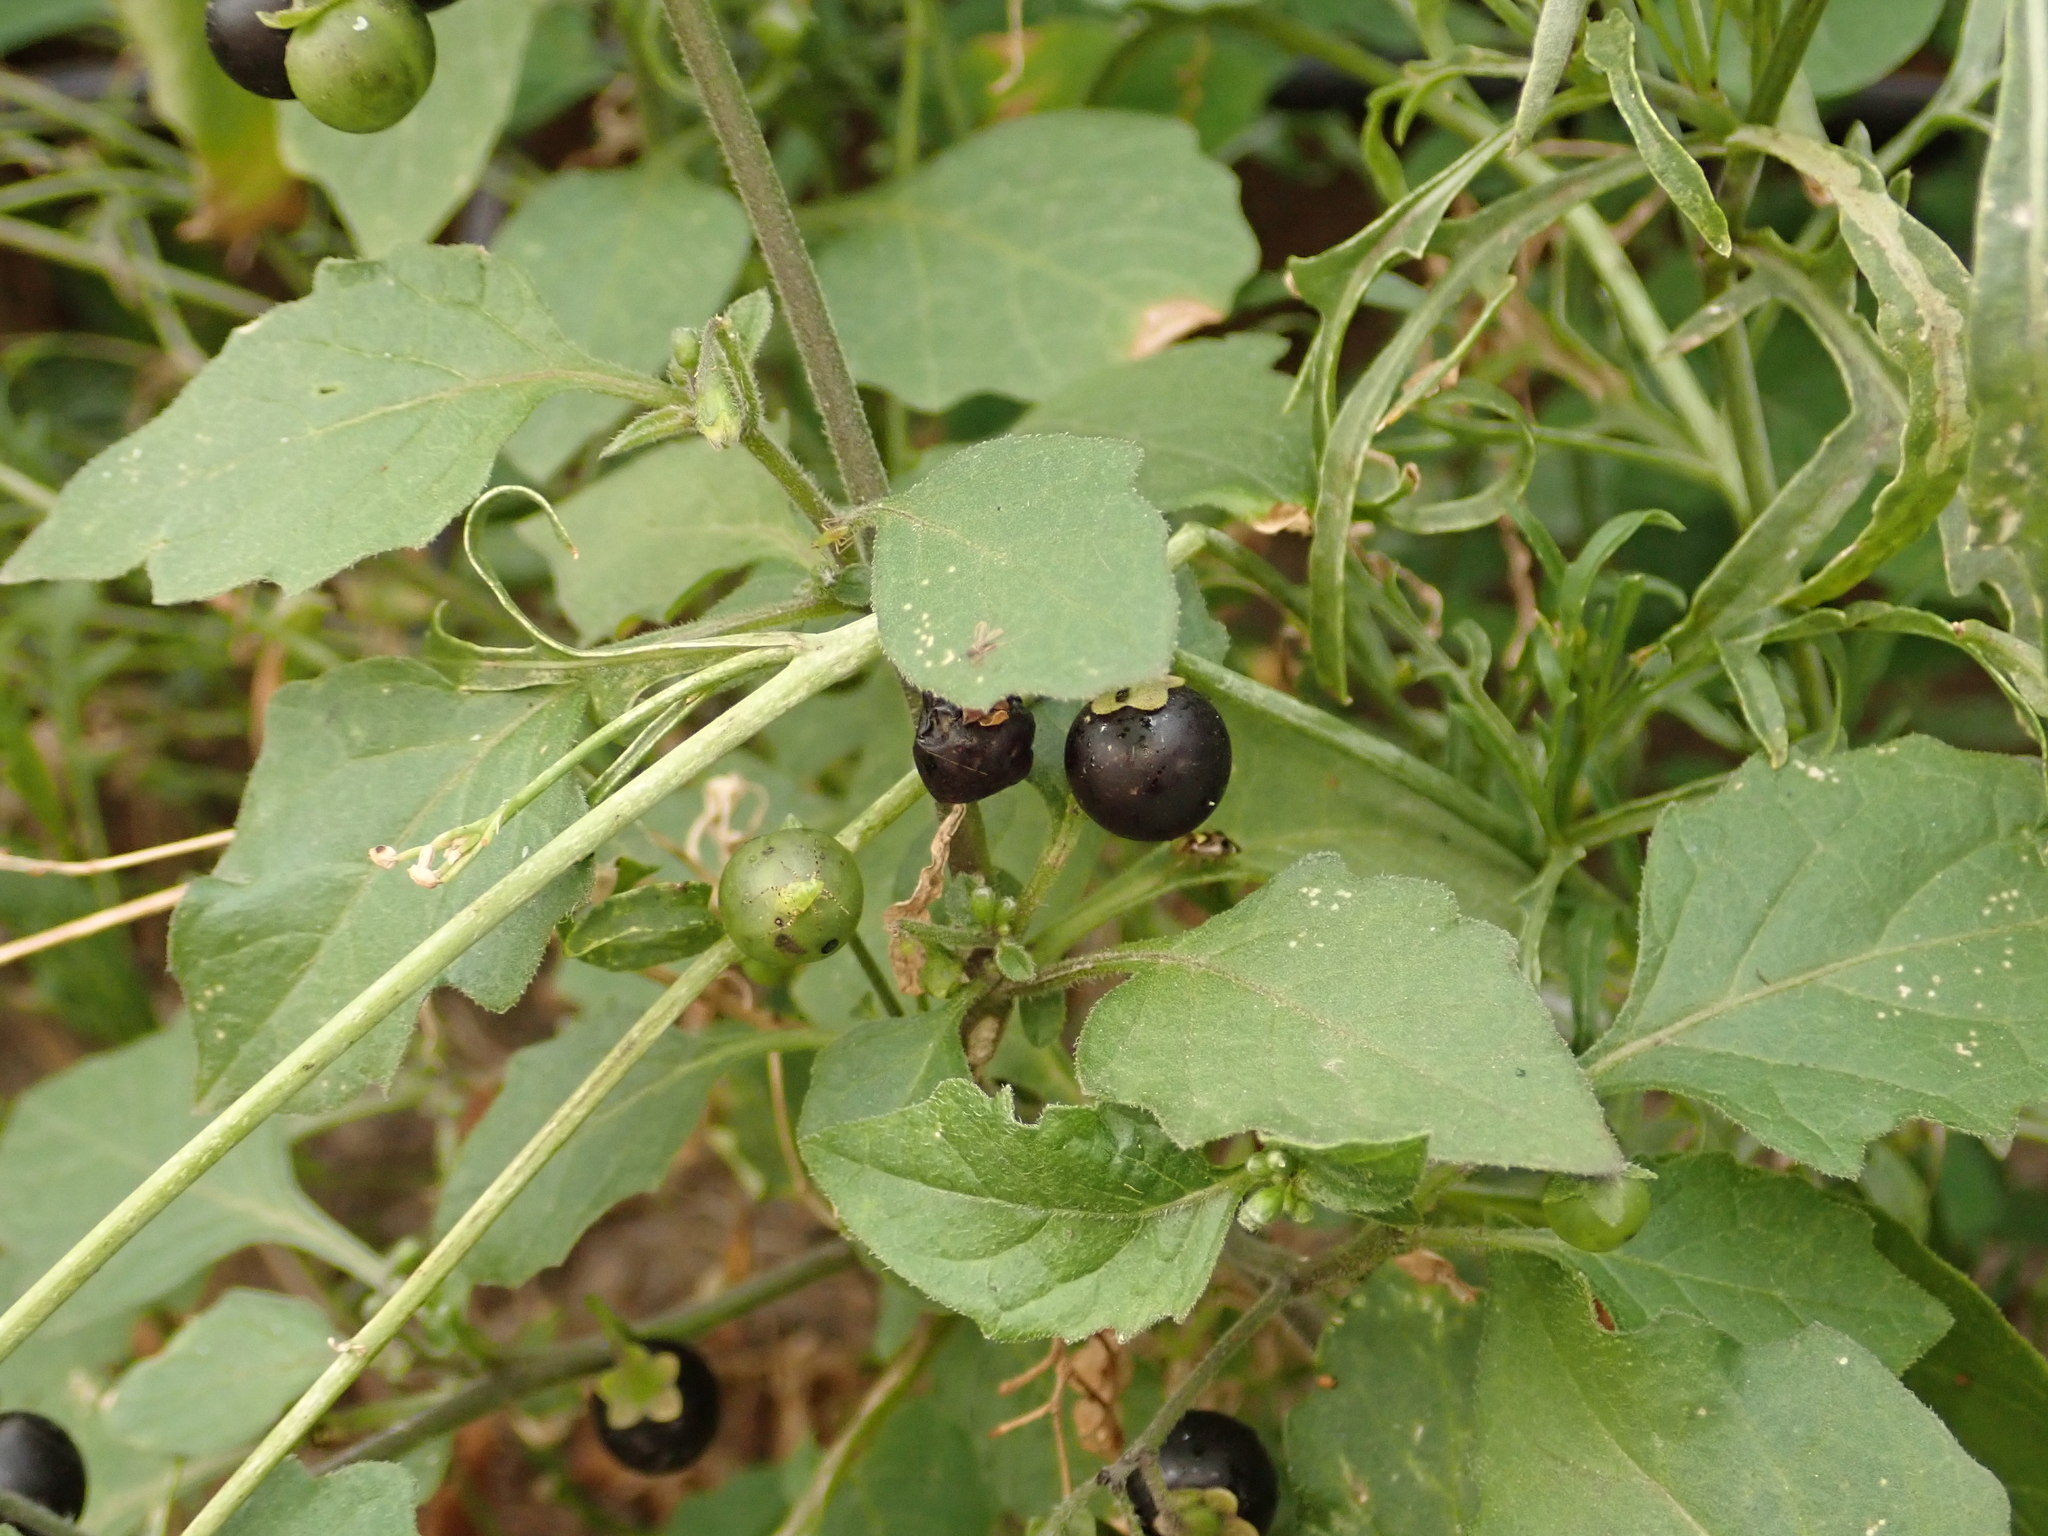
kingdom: Plantae
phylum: Tracheophyta
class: Magnoliopsida
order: Solanales
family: Solanaceae
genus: Solanum
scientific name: Solanum nigrum
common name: Black nightshade
